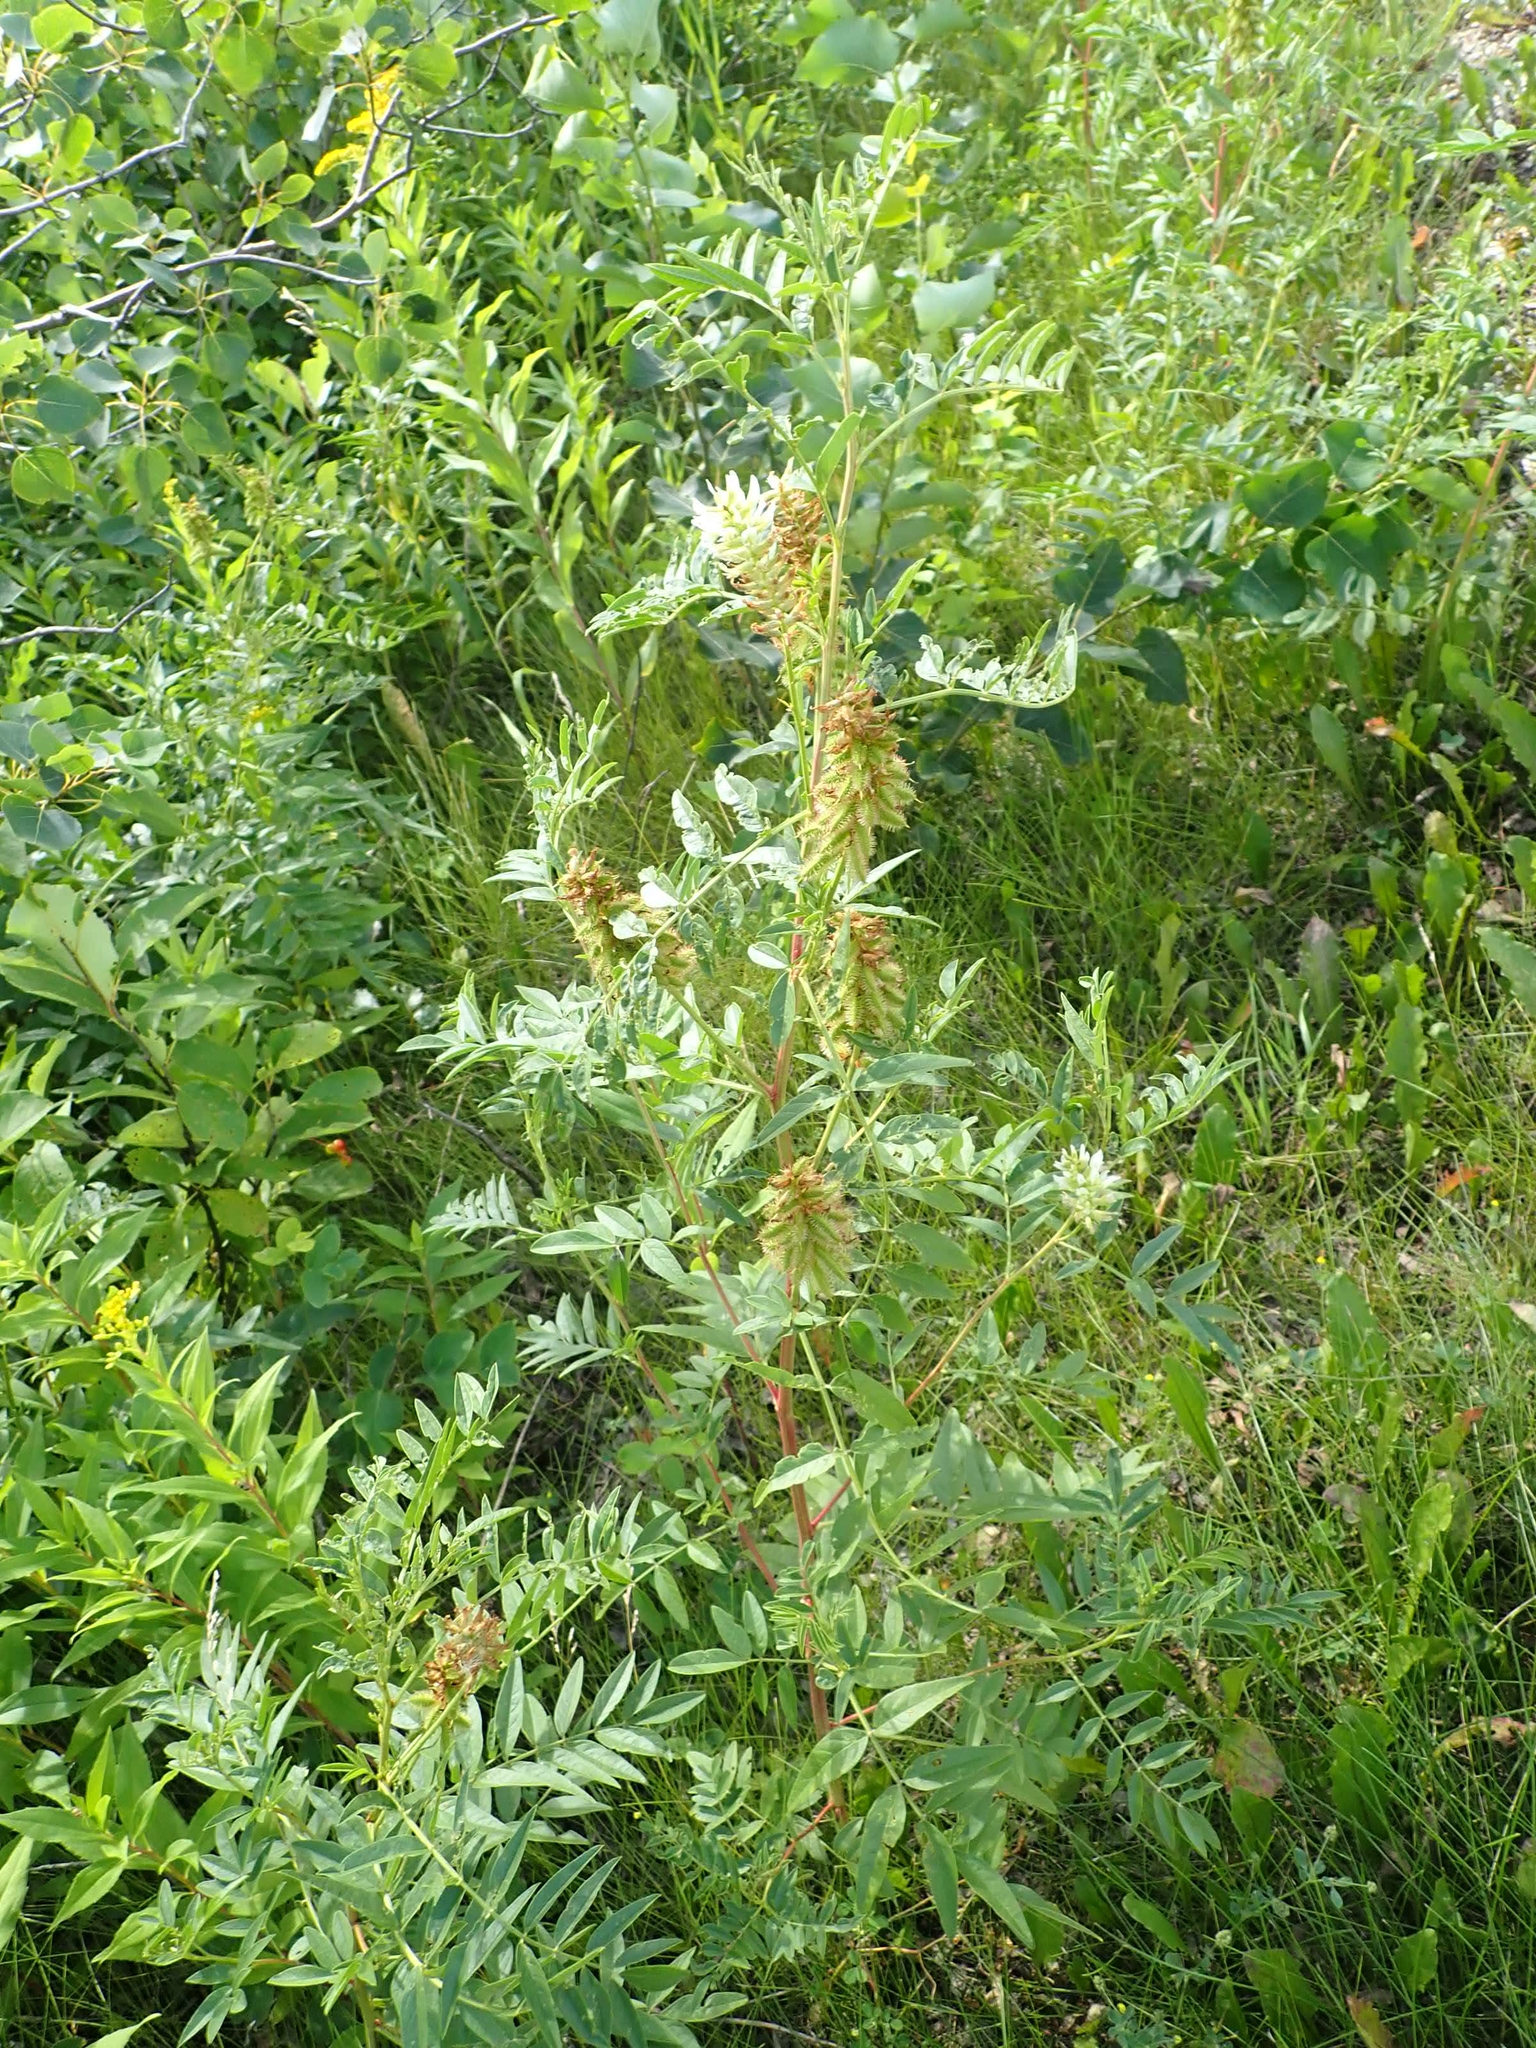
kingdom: Plantae
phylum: Tracheophyta
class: Magnoliopsida
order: Fabales
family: Fabaceae
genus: Glycyrrhiza
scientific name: Glycyrrhiza lepidota
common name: American liquorice
